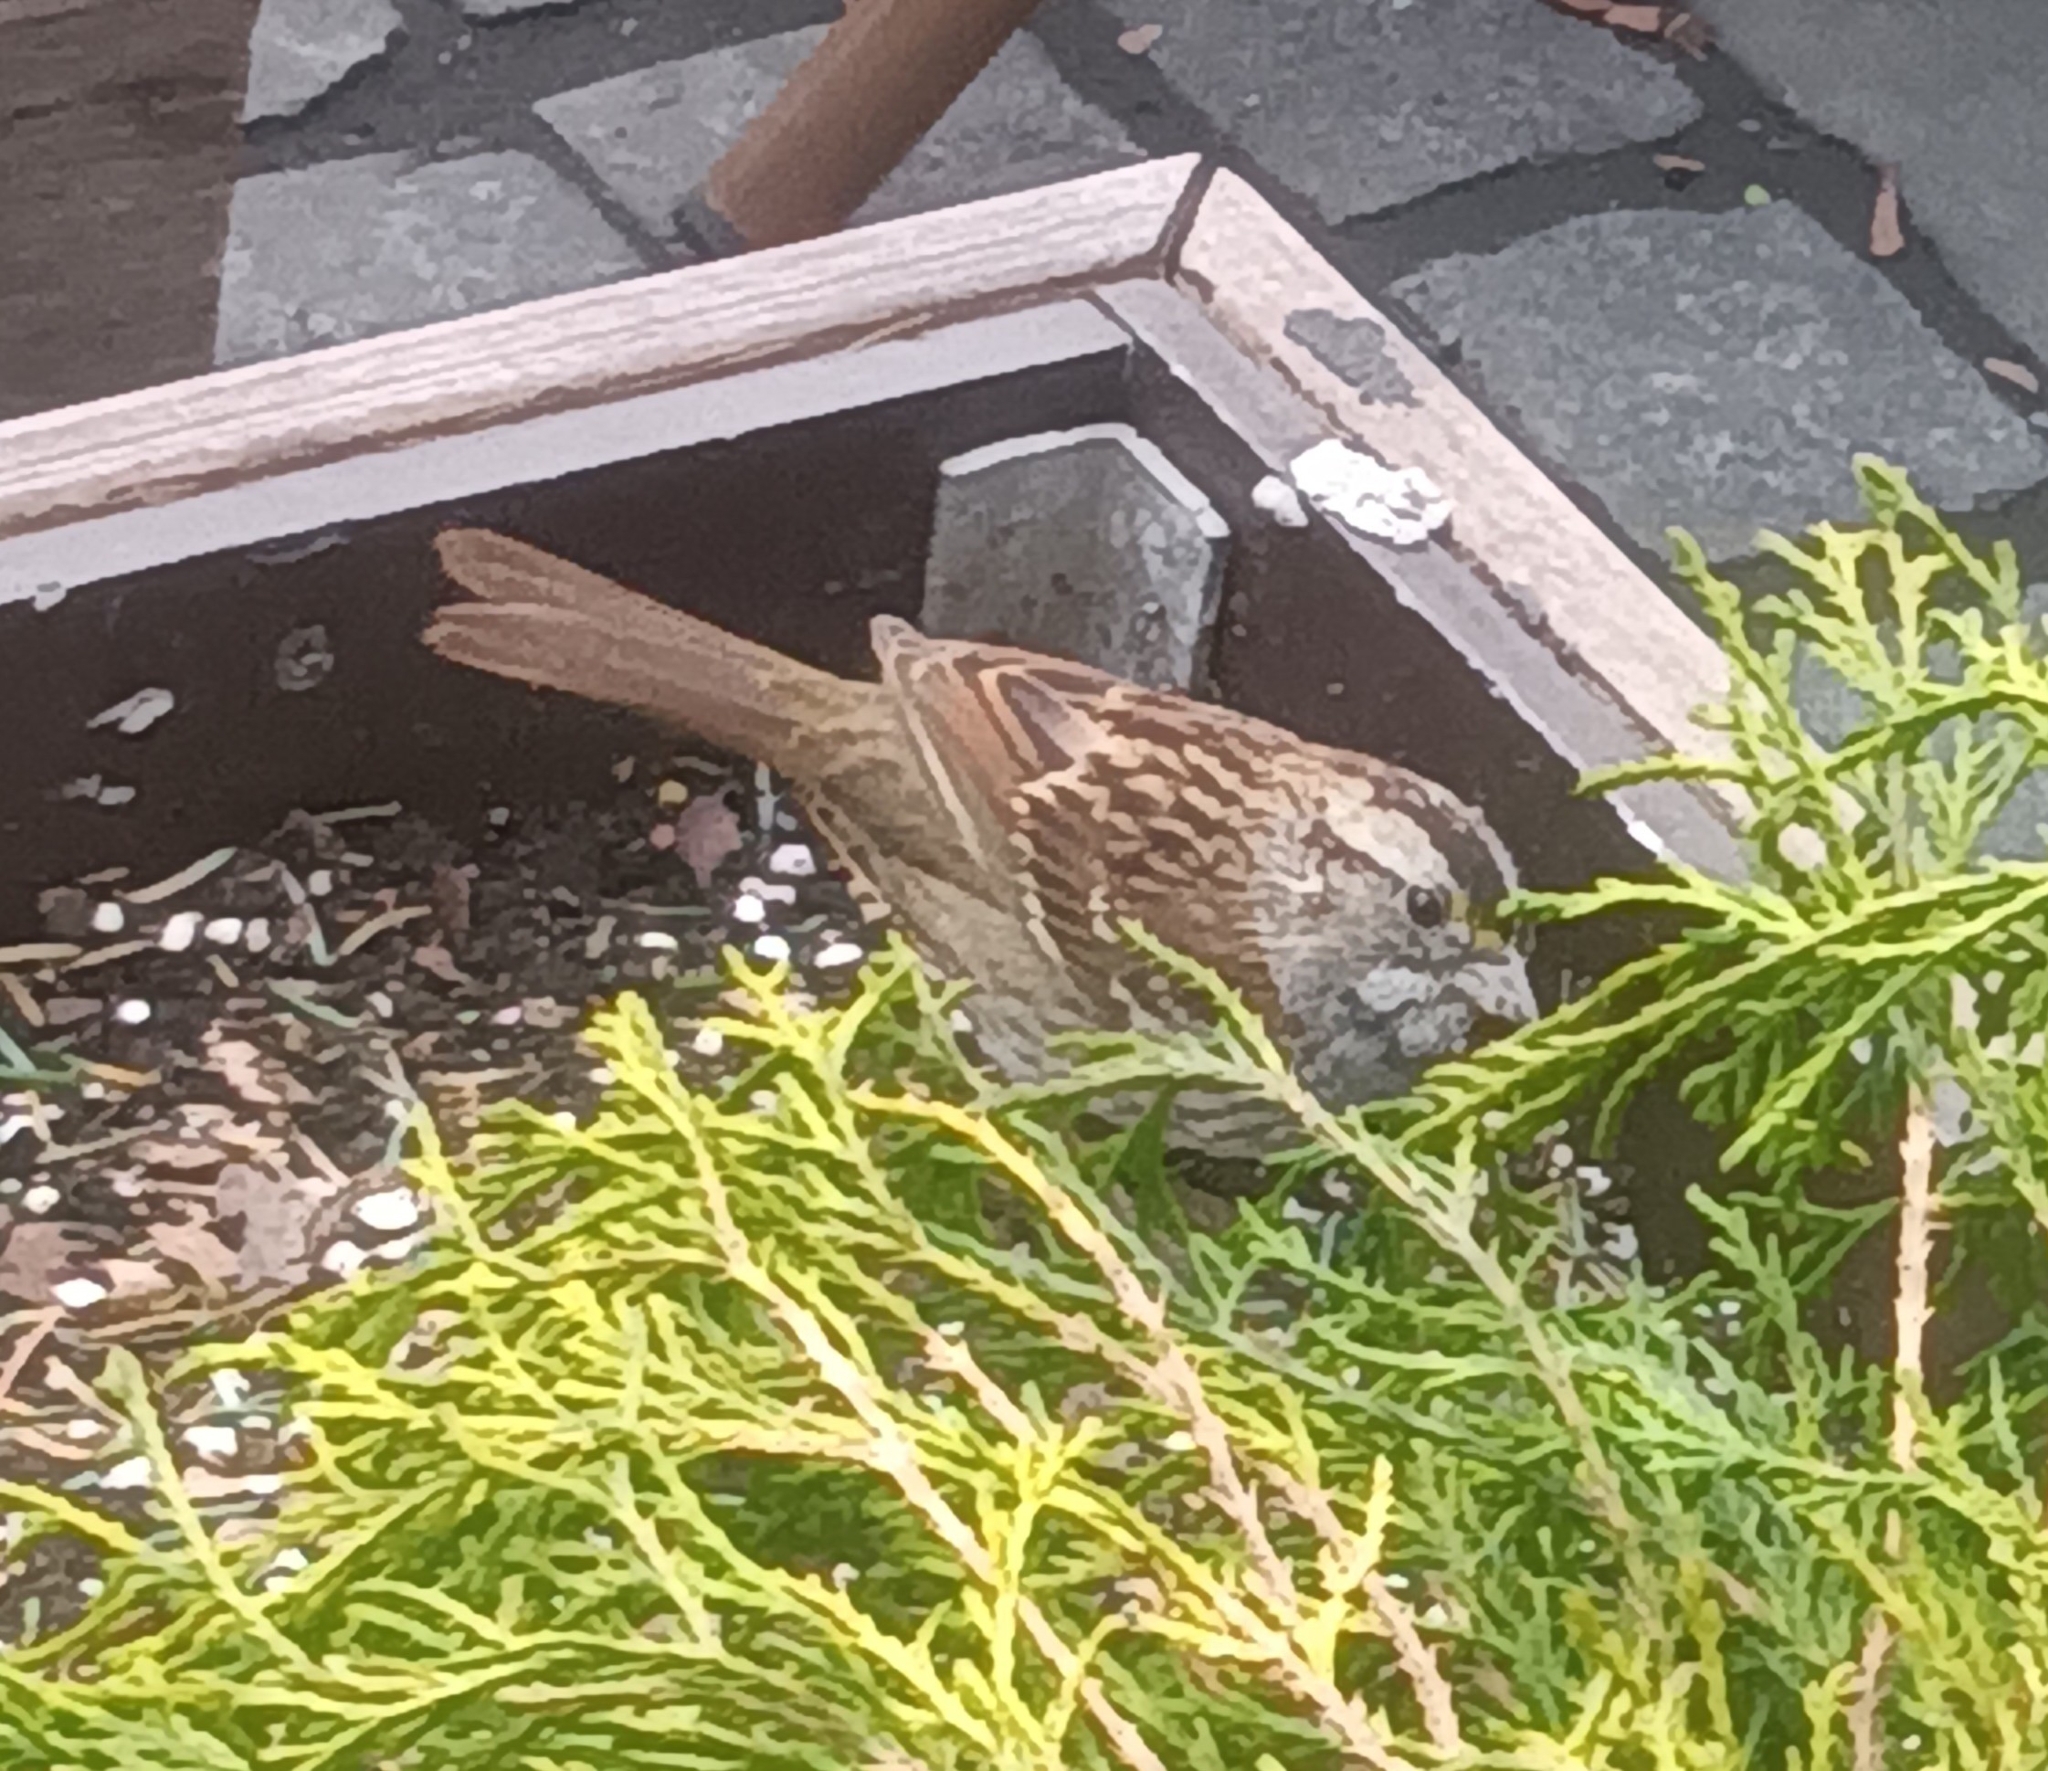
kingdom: Animalia
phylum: Chordata
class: Aves
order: Passeriformes
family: Passerellidae
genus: Zonotrichia
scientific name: Zonotrichia albicollis
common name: White-throated sparrow
